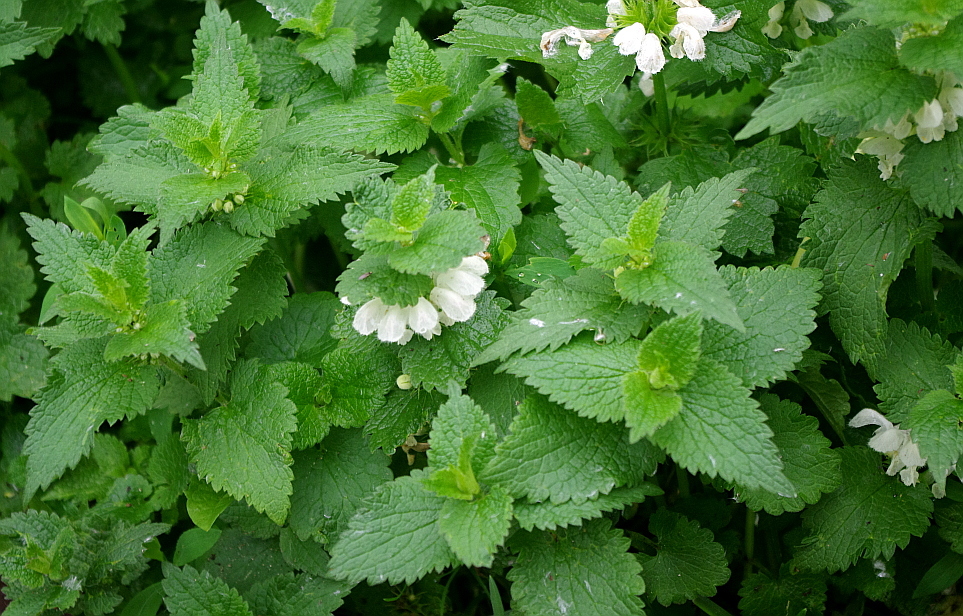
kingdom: Plantae
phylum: Tracheophyta
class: Magnoliopsida
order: Lamiales
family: Lamiaceae
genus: Lamium
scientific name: Lamium album
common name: White dead-nettle
